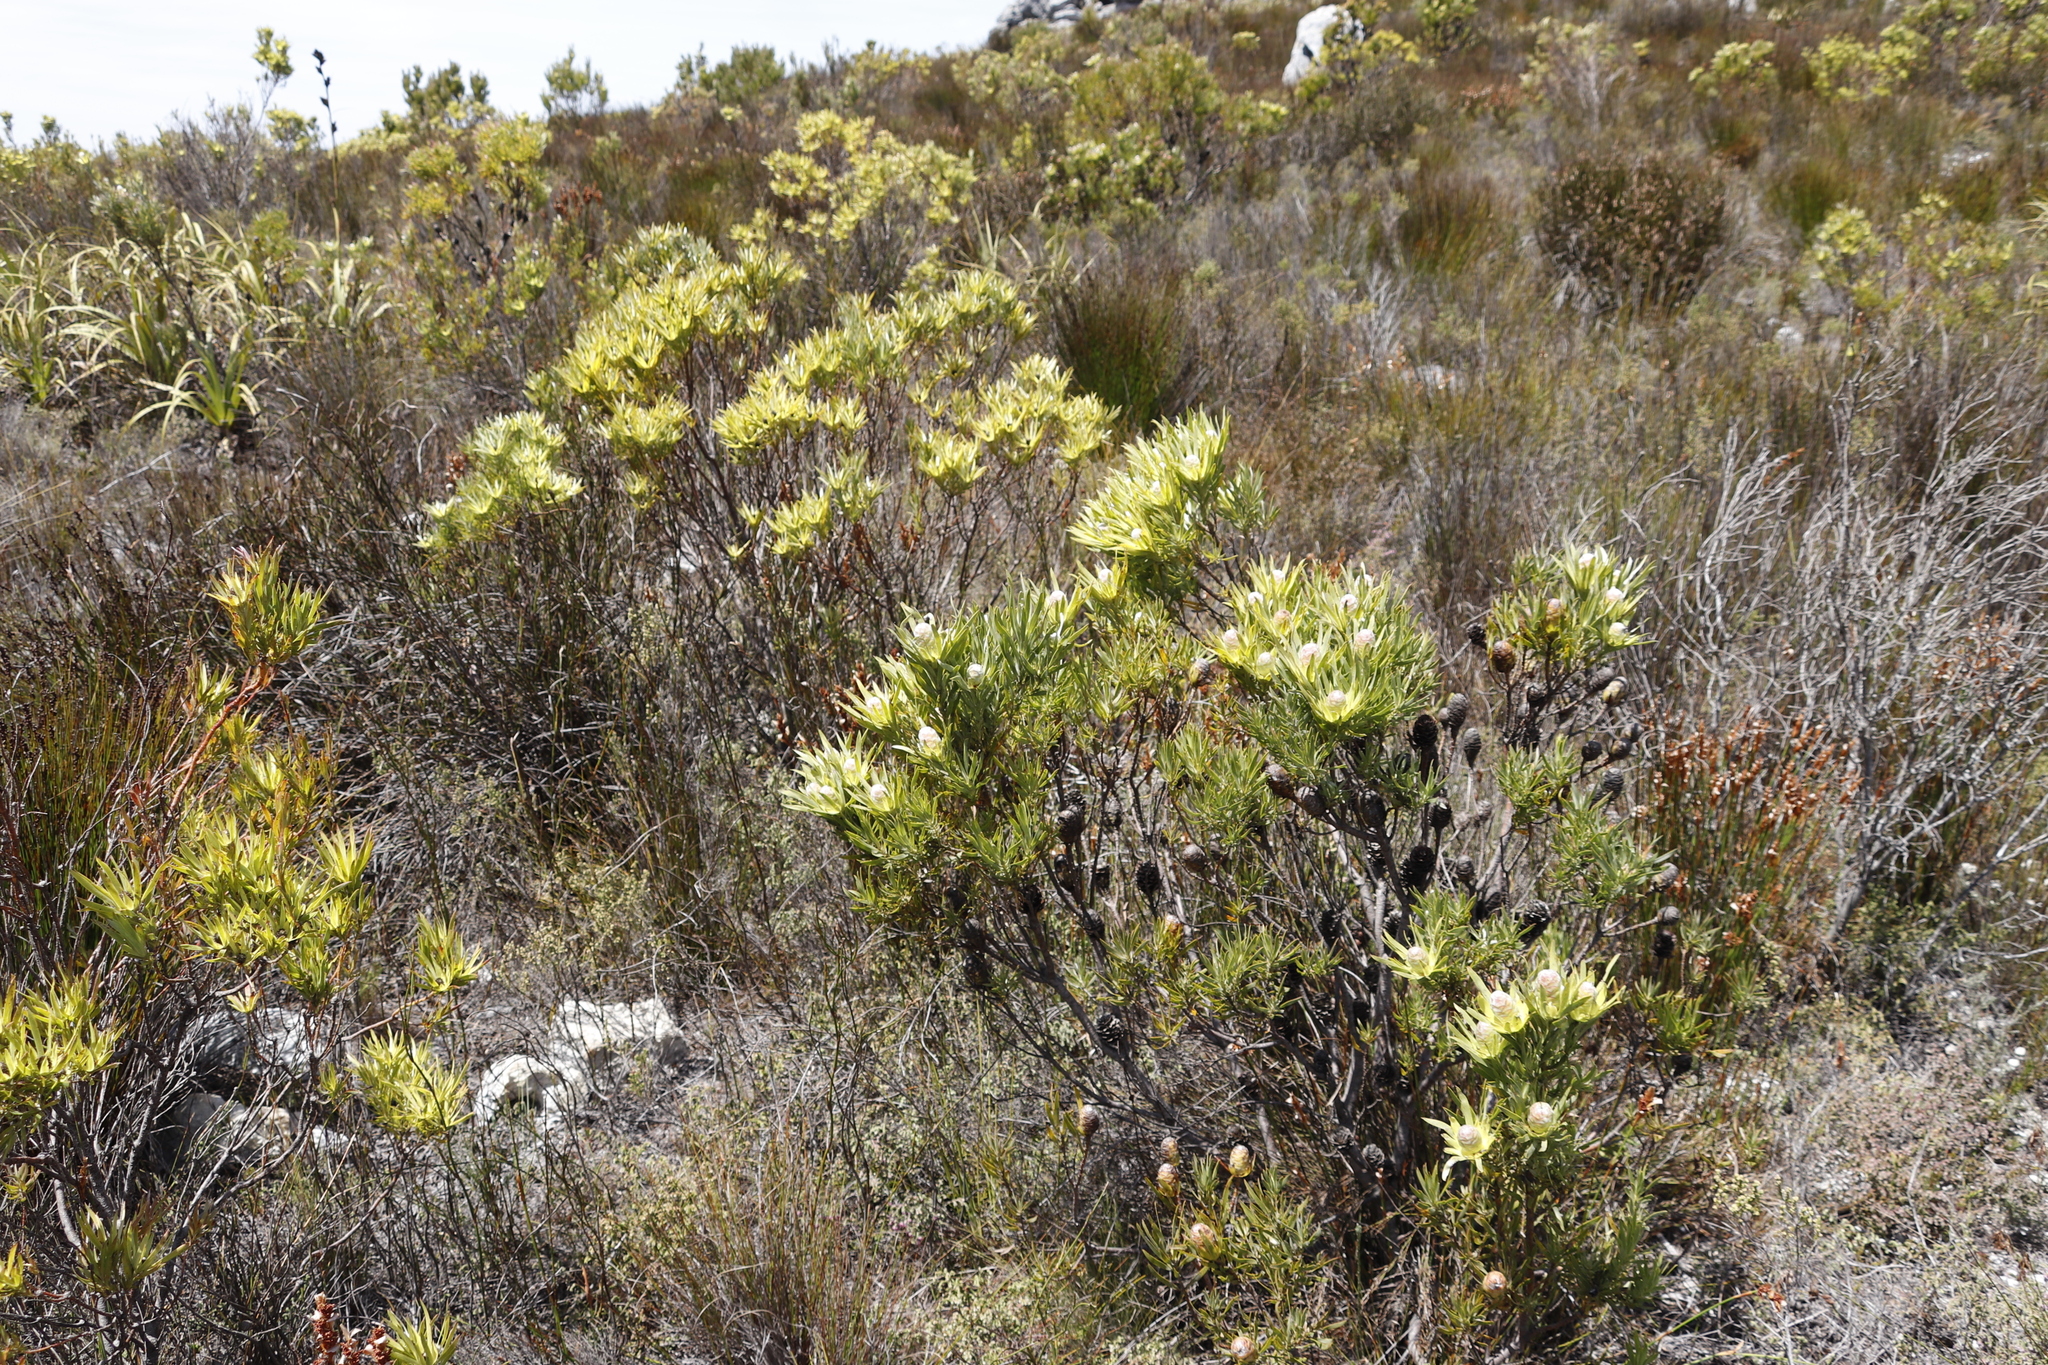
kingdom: Plantae
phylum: Tracheophyta
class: Magnoliopsida
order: Proteales
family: Proteaceae
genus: Leucadendron
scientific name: Leucadendron xanthoconus
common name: Sickle-leaf conebush
